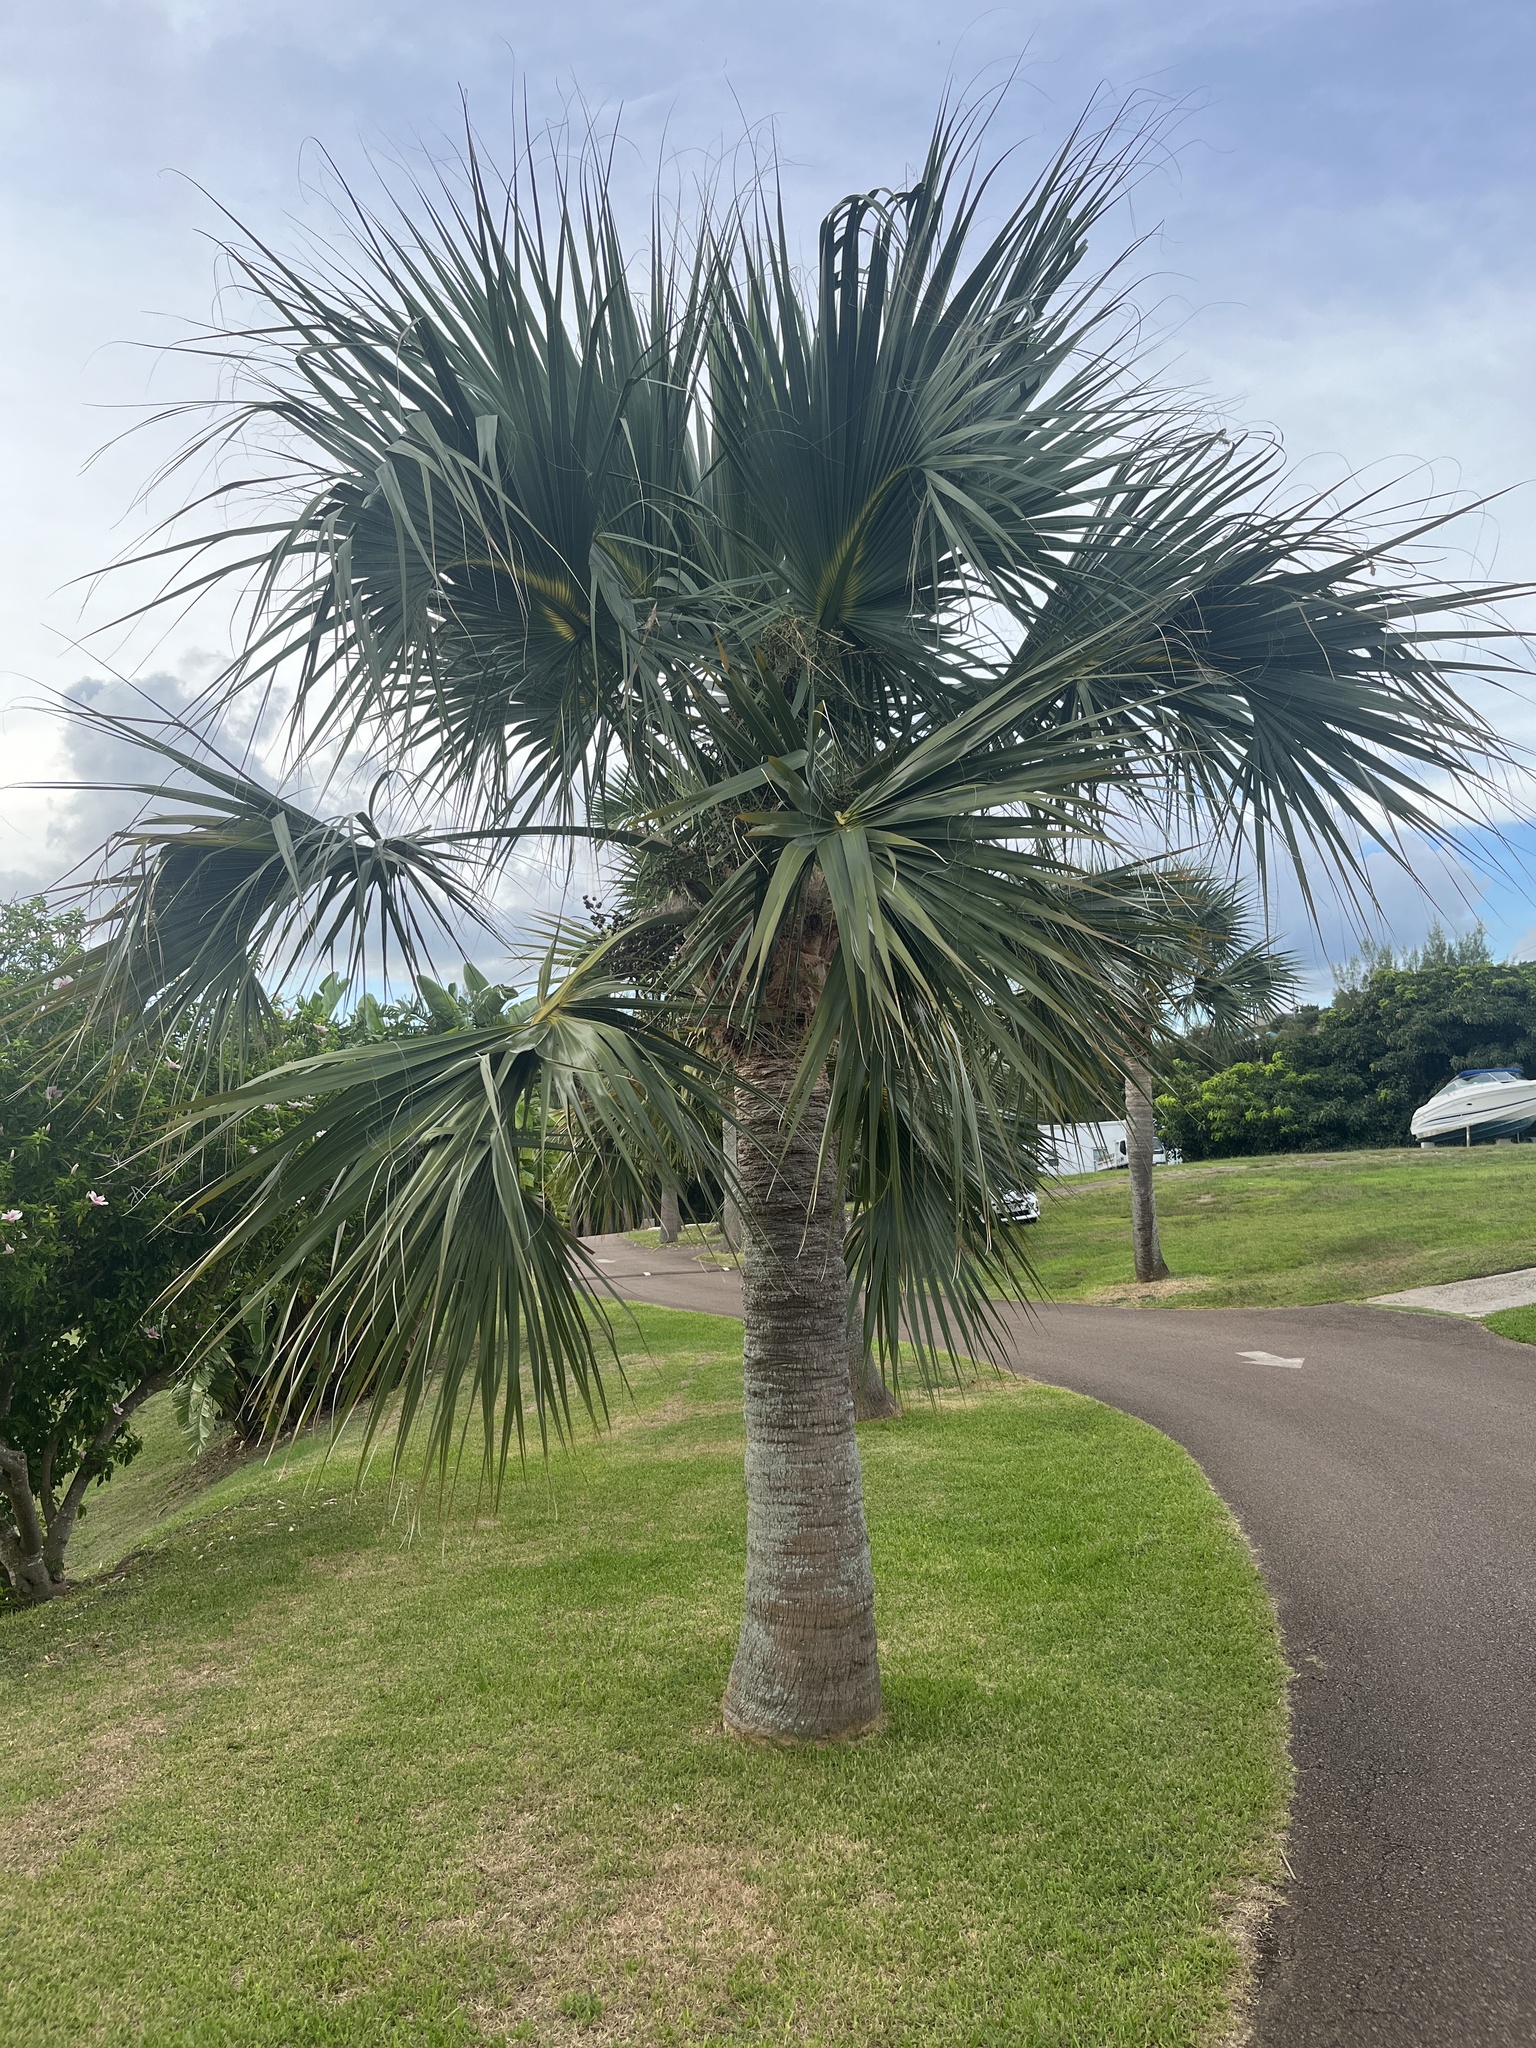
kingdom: Plantae
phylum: Tracheophyta
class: Liliopsida
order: Arecales
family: Arecaceae
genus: Sabal
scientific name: Sabal bermudana
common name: Bermuda palm
